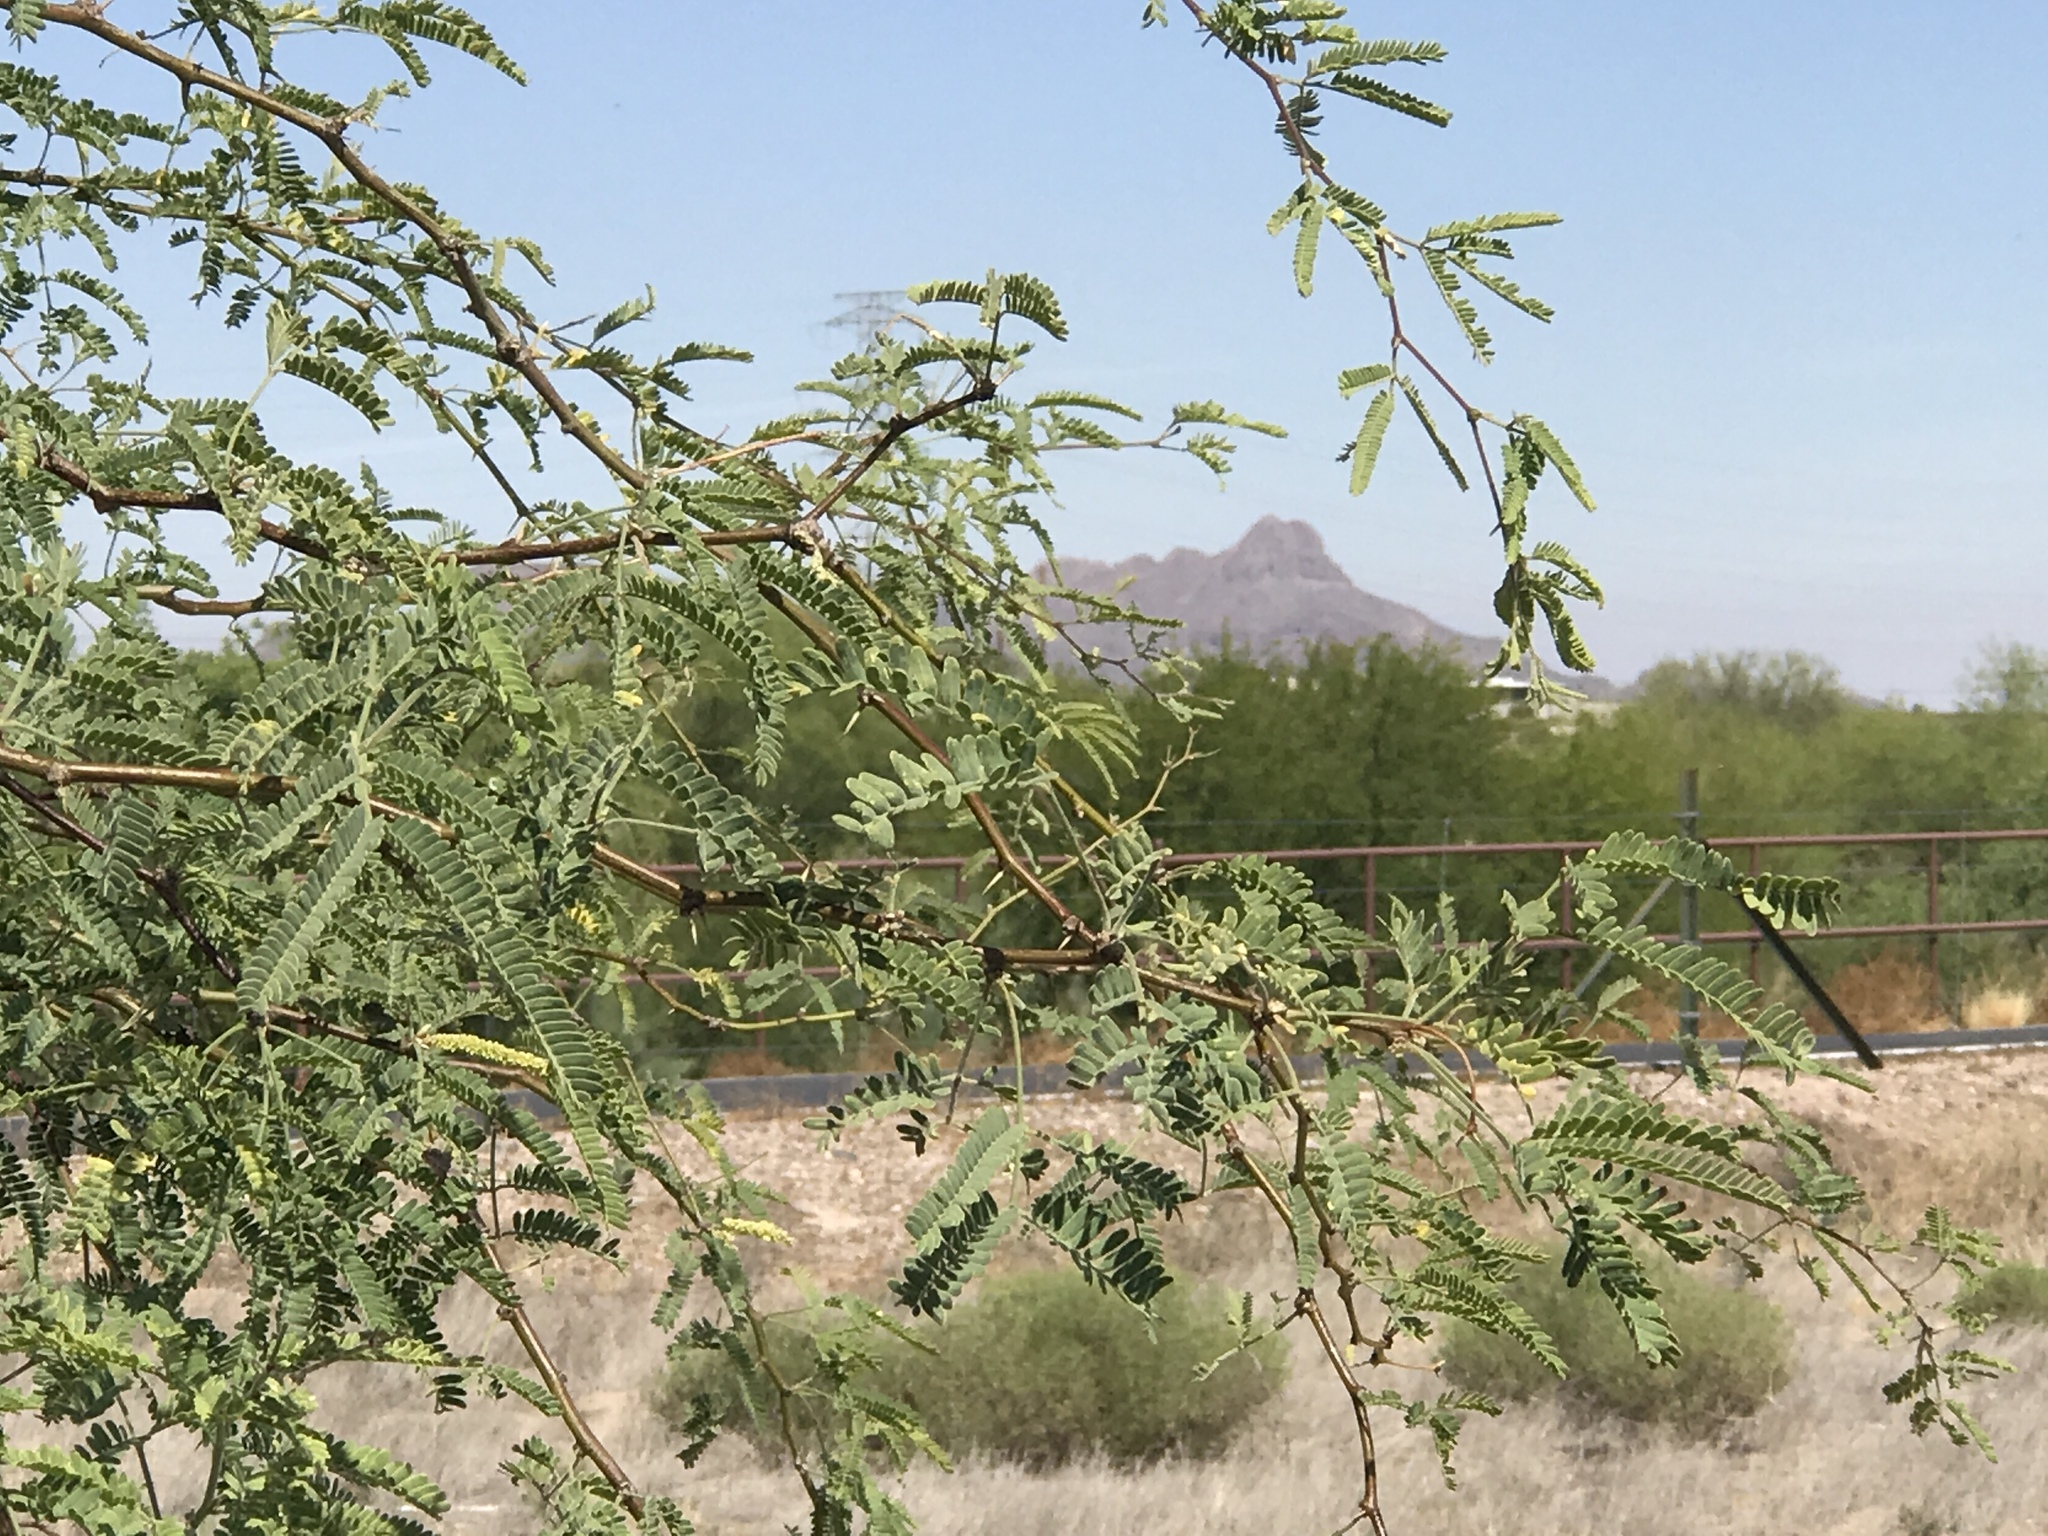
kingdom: Plantae
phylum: Tracheophyta
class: Magnoliopsida
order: Fabales
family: Fabaceae
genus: Prosopis
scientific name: Prosopis velutina
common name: Velvet mesquite
